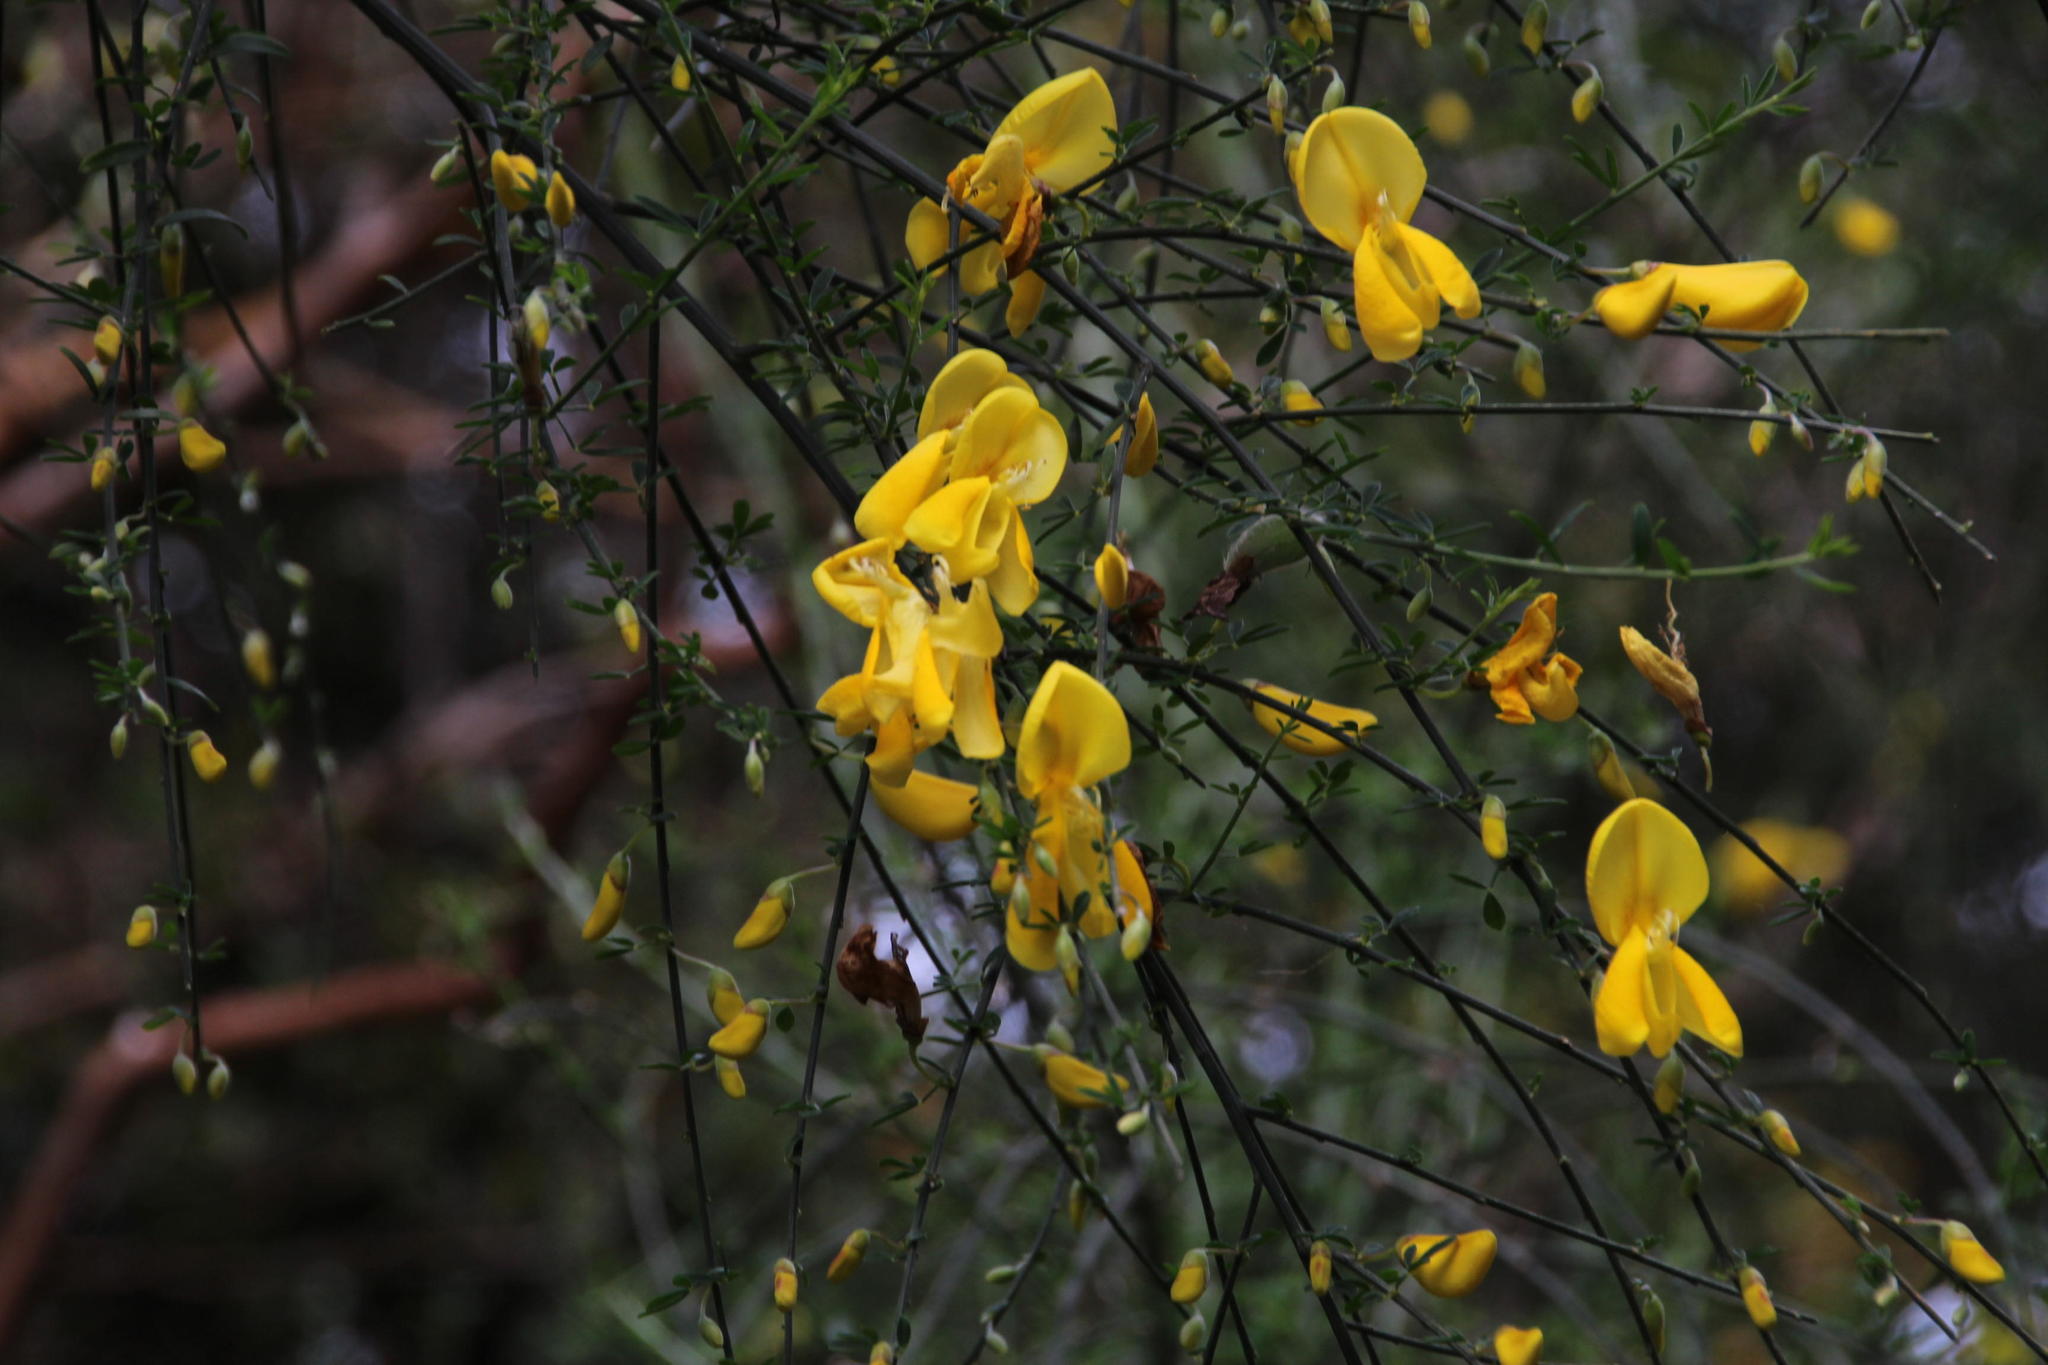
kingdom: Plantae
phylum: Tracheophyta
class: Magnoliopsida
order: Fabales
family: Fabaceae
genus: Cytisus
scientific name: Cytisus striatus
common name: Hairy-fruited broom
